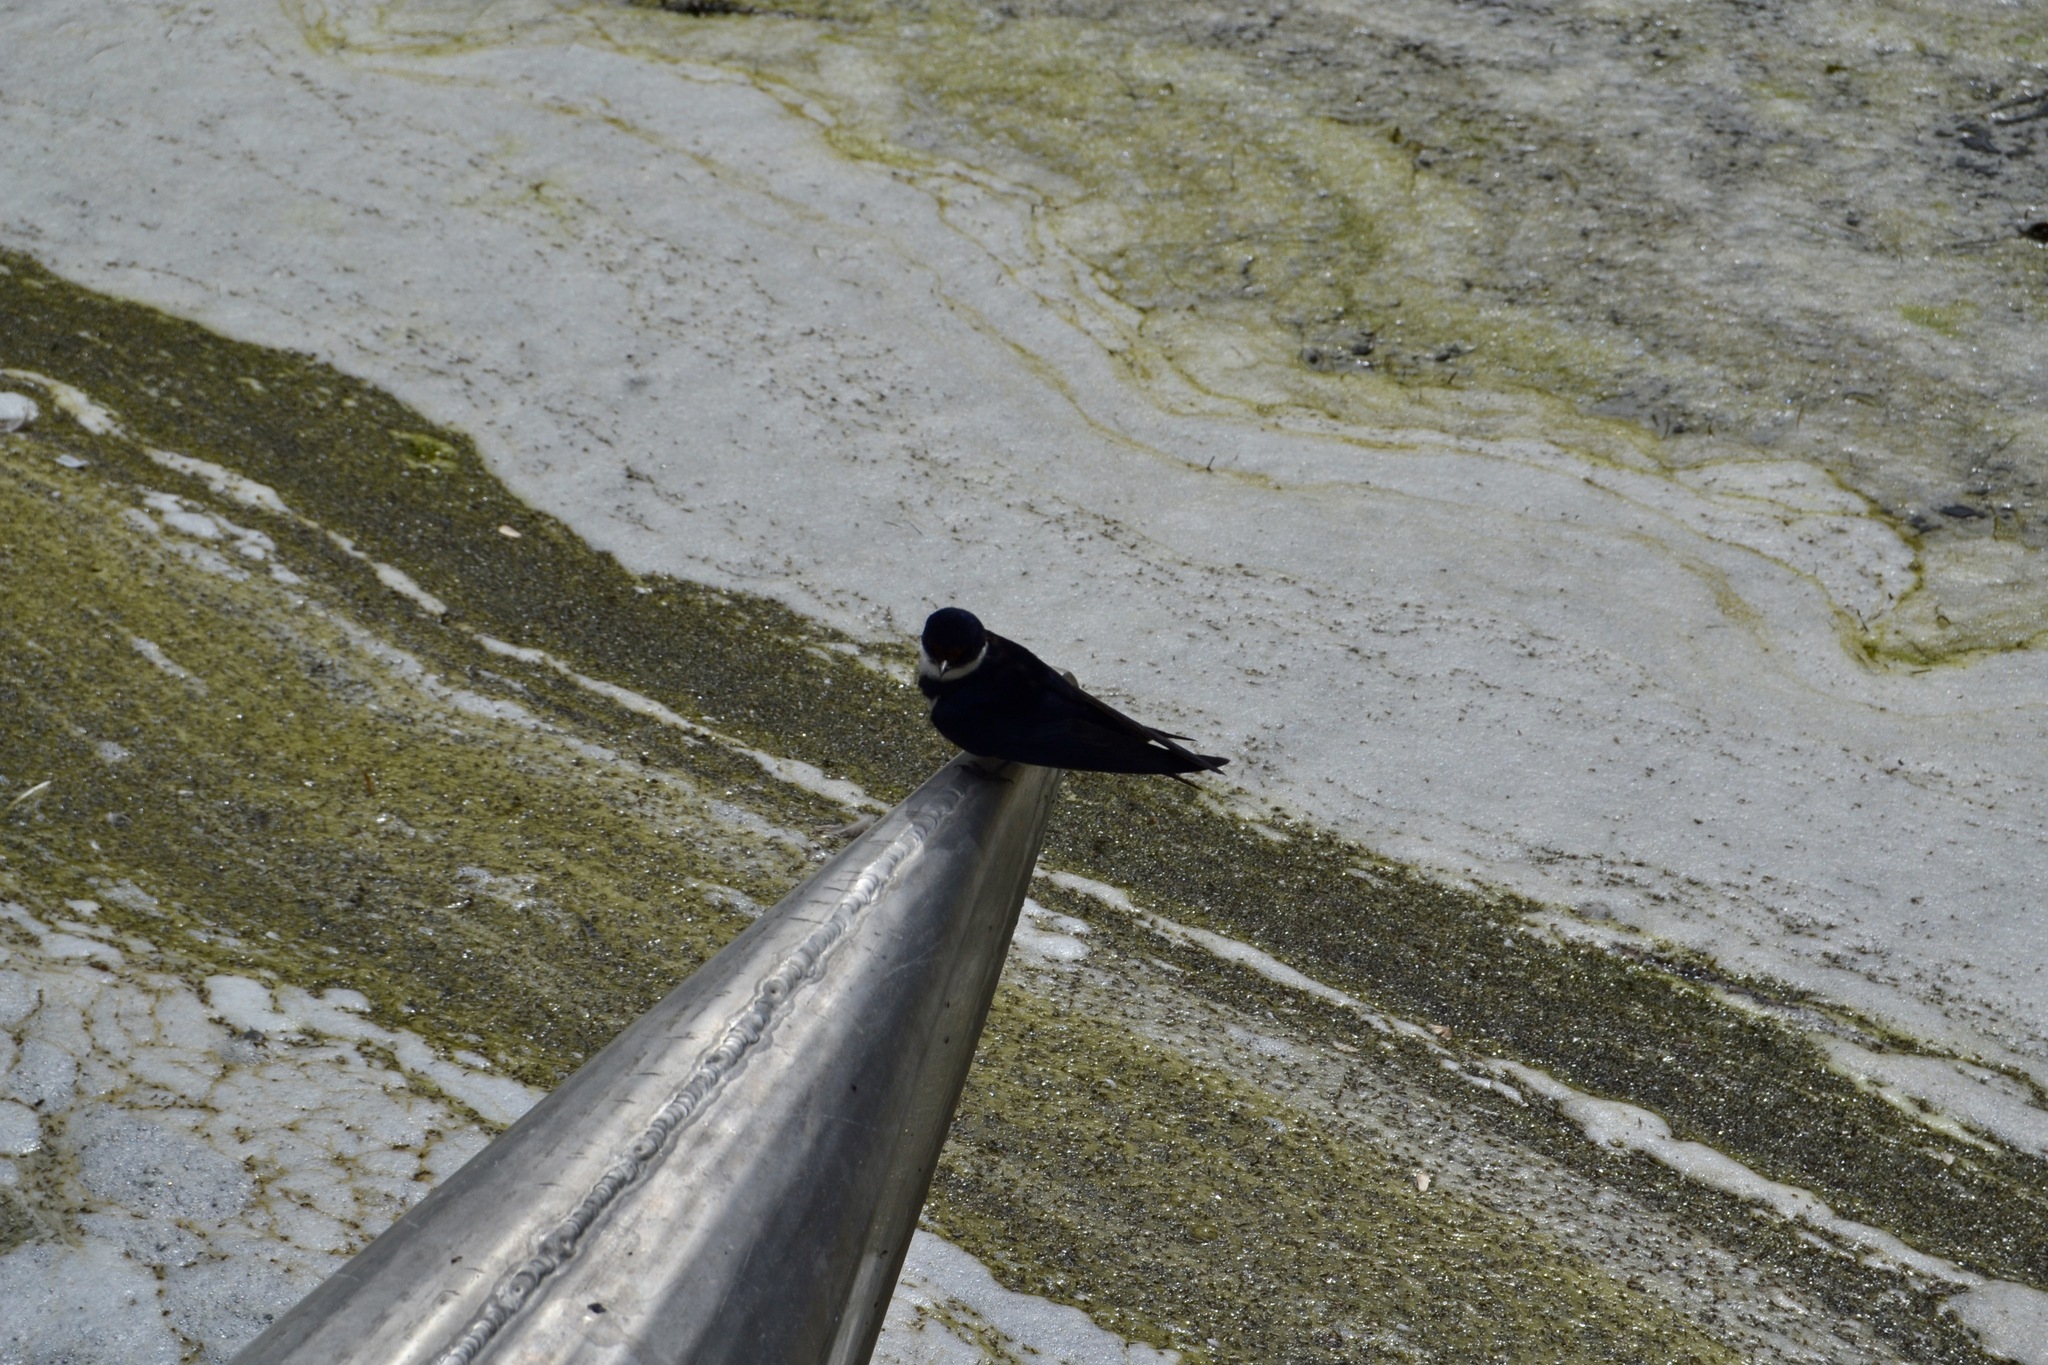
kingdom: Animalia
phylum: Chordata
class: Aves
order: Passeriformes
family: Hirundinidae
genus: Hirundo
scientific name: Hirundo albigularis
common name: White-throated swallow
